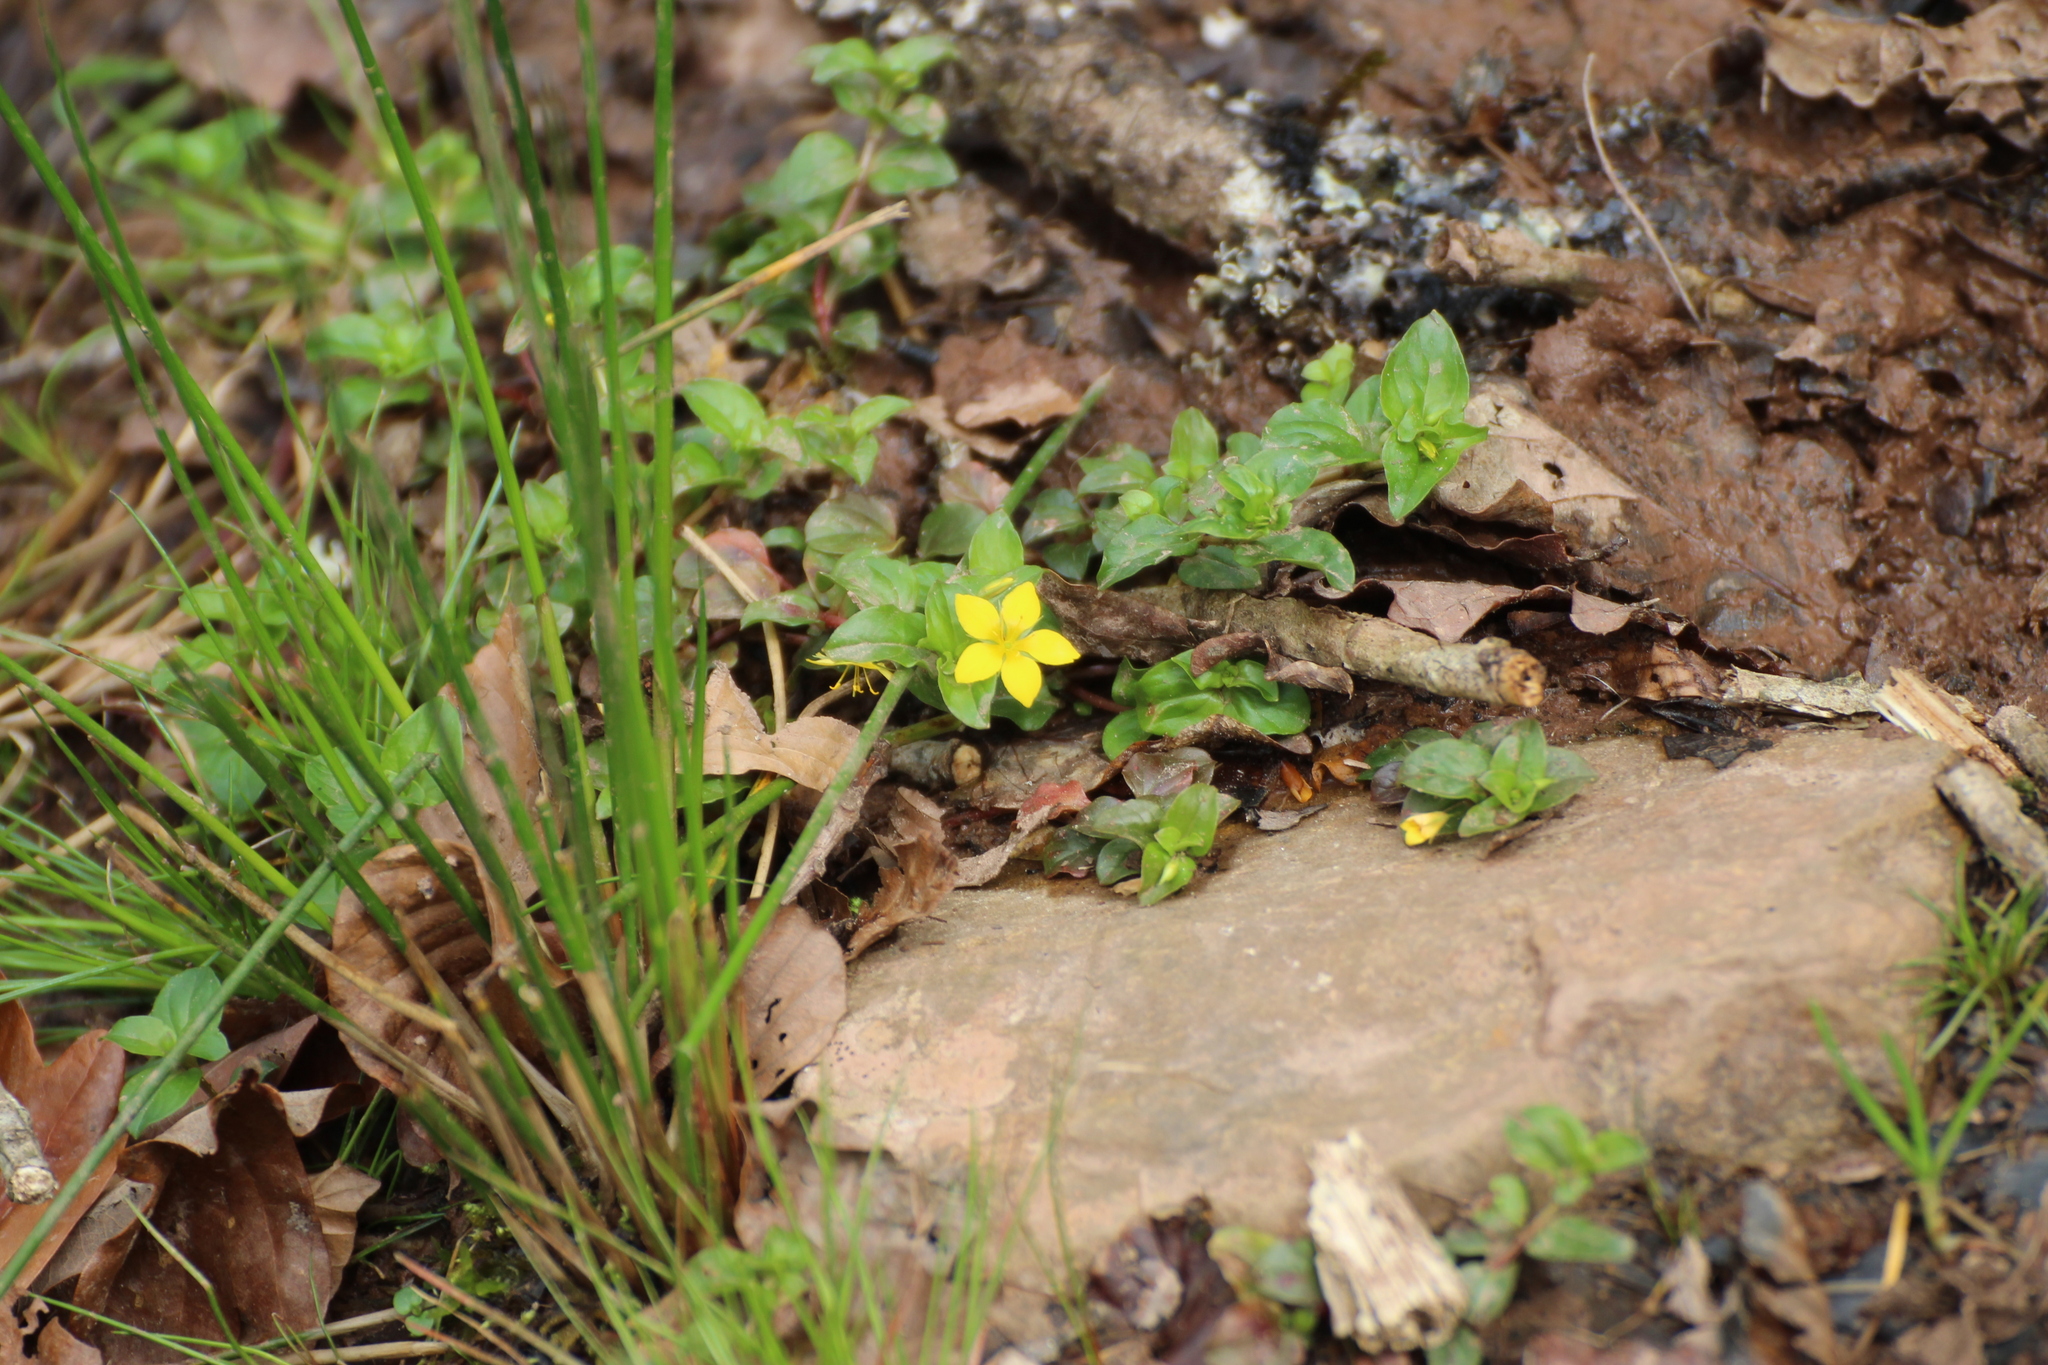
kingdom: Plantae
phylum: Tracheophyta
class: Magnoliopsida
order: Ericales
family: Primulaceae
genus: Lysimachia
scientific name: Lysimachia nemorum
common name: Yellow pimpernel
